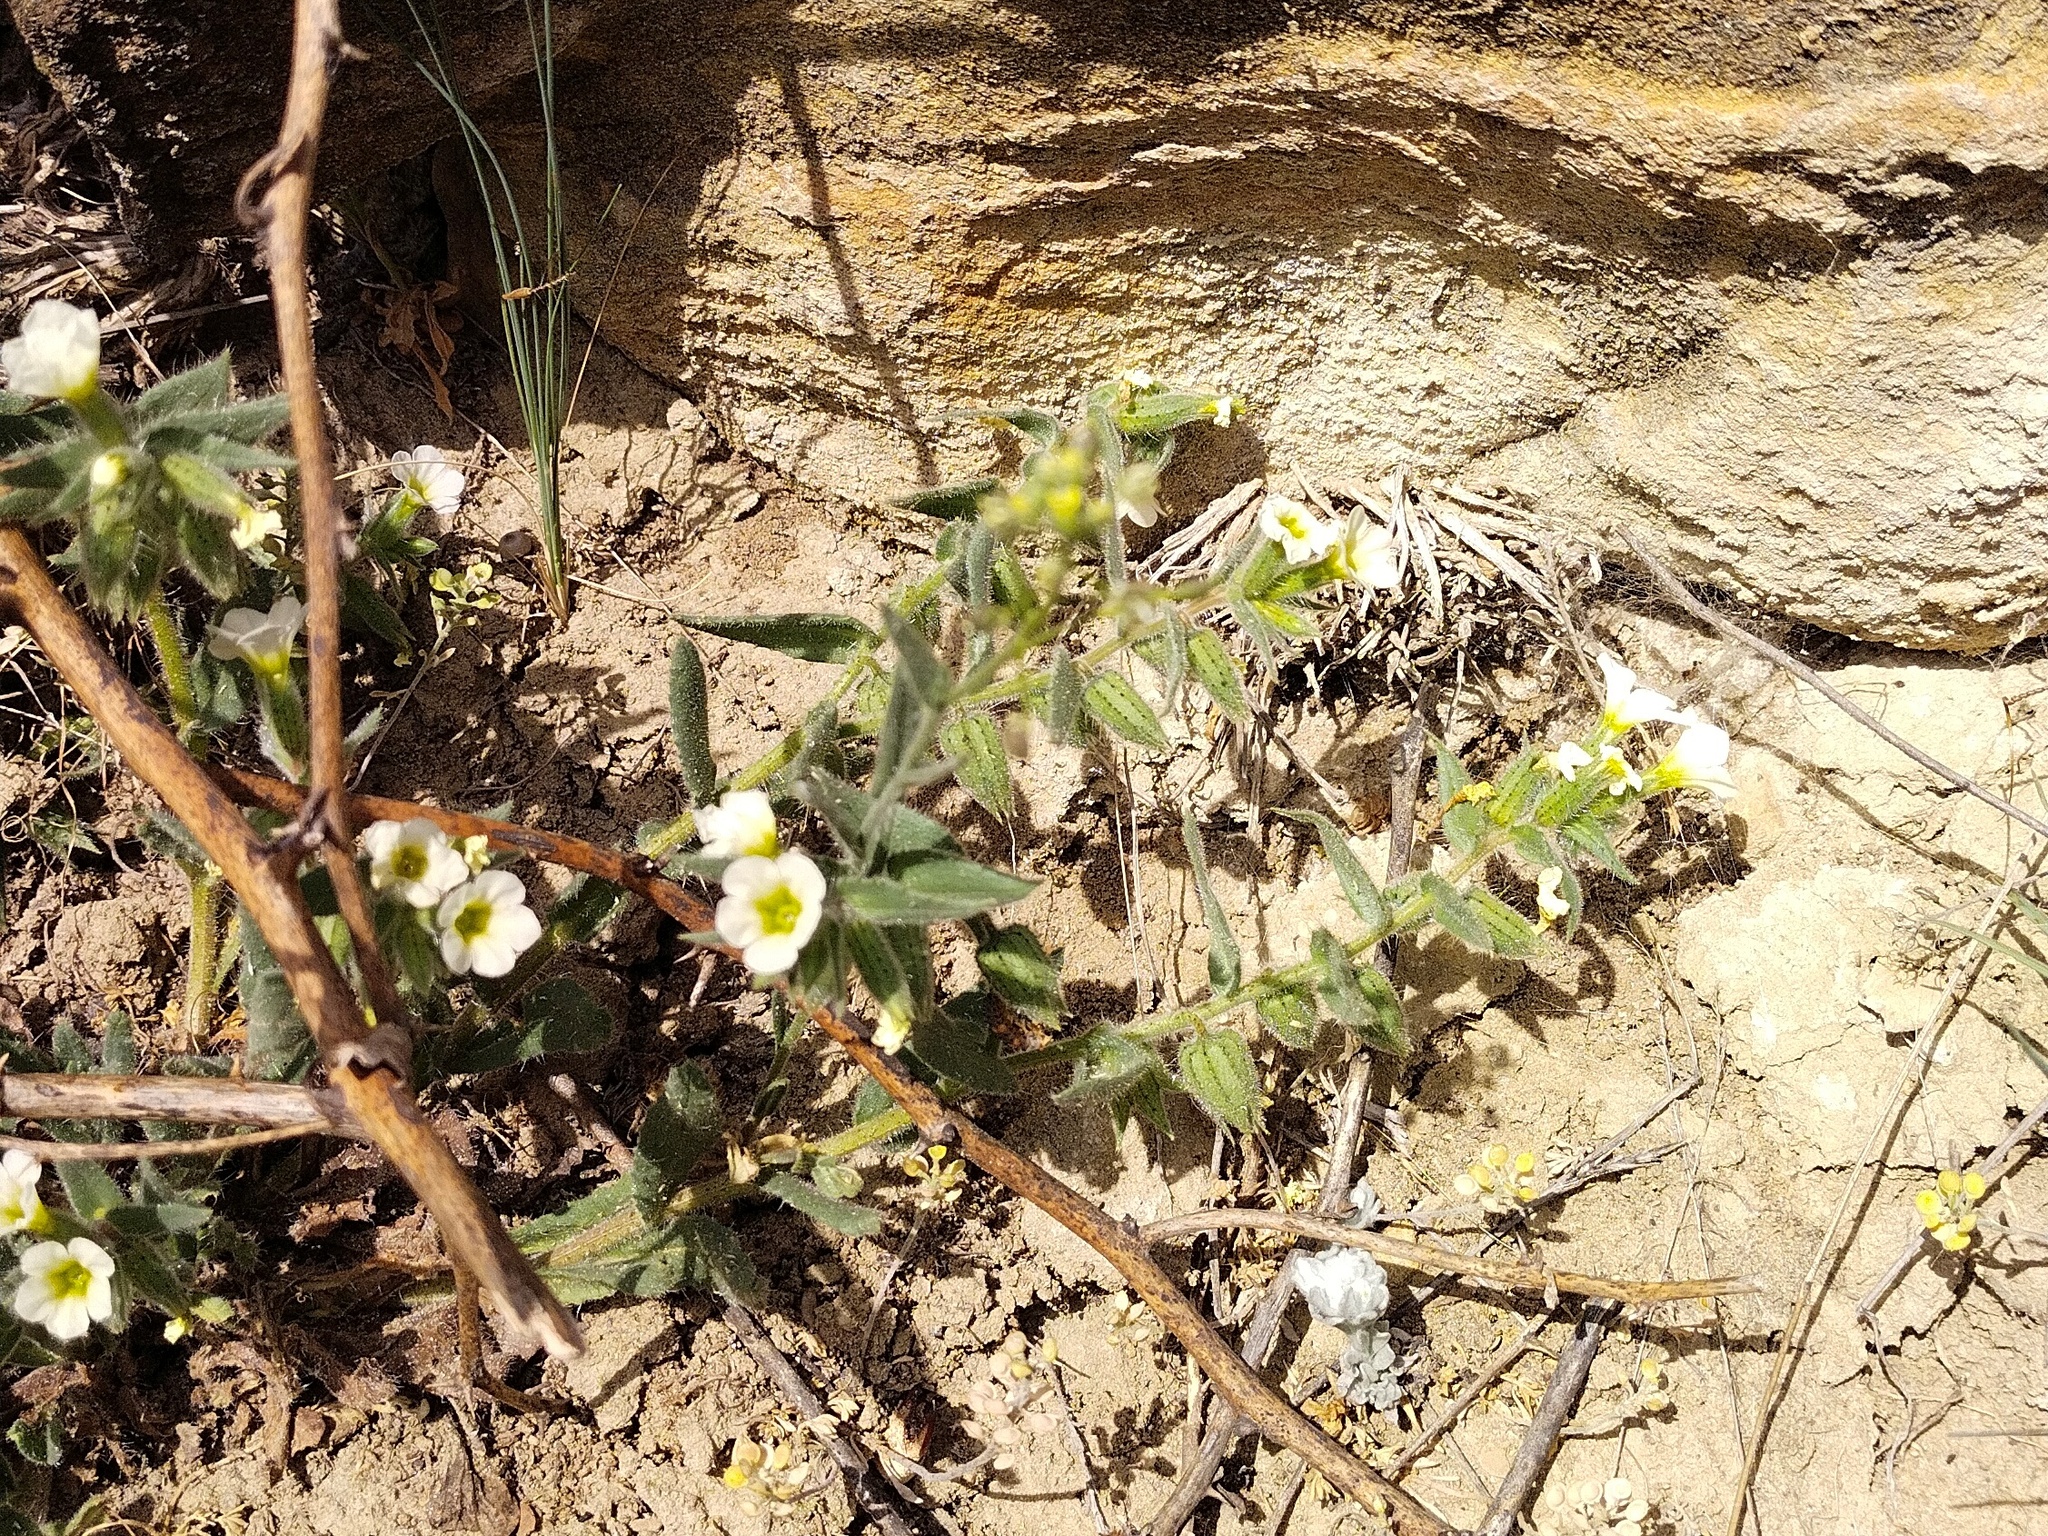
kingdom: Plantae
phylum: Tracheophyta
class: Magnoliopsida
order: Boraginales
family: Boraginaceae
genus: Nonea
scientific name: Nonea lutea
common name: Yellow nonea
